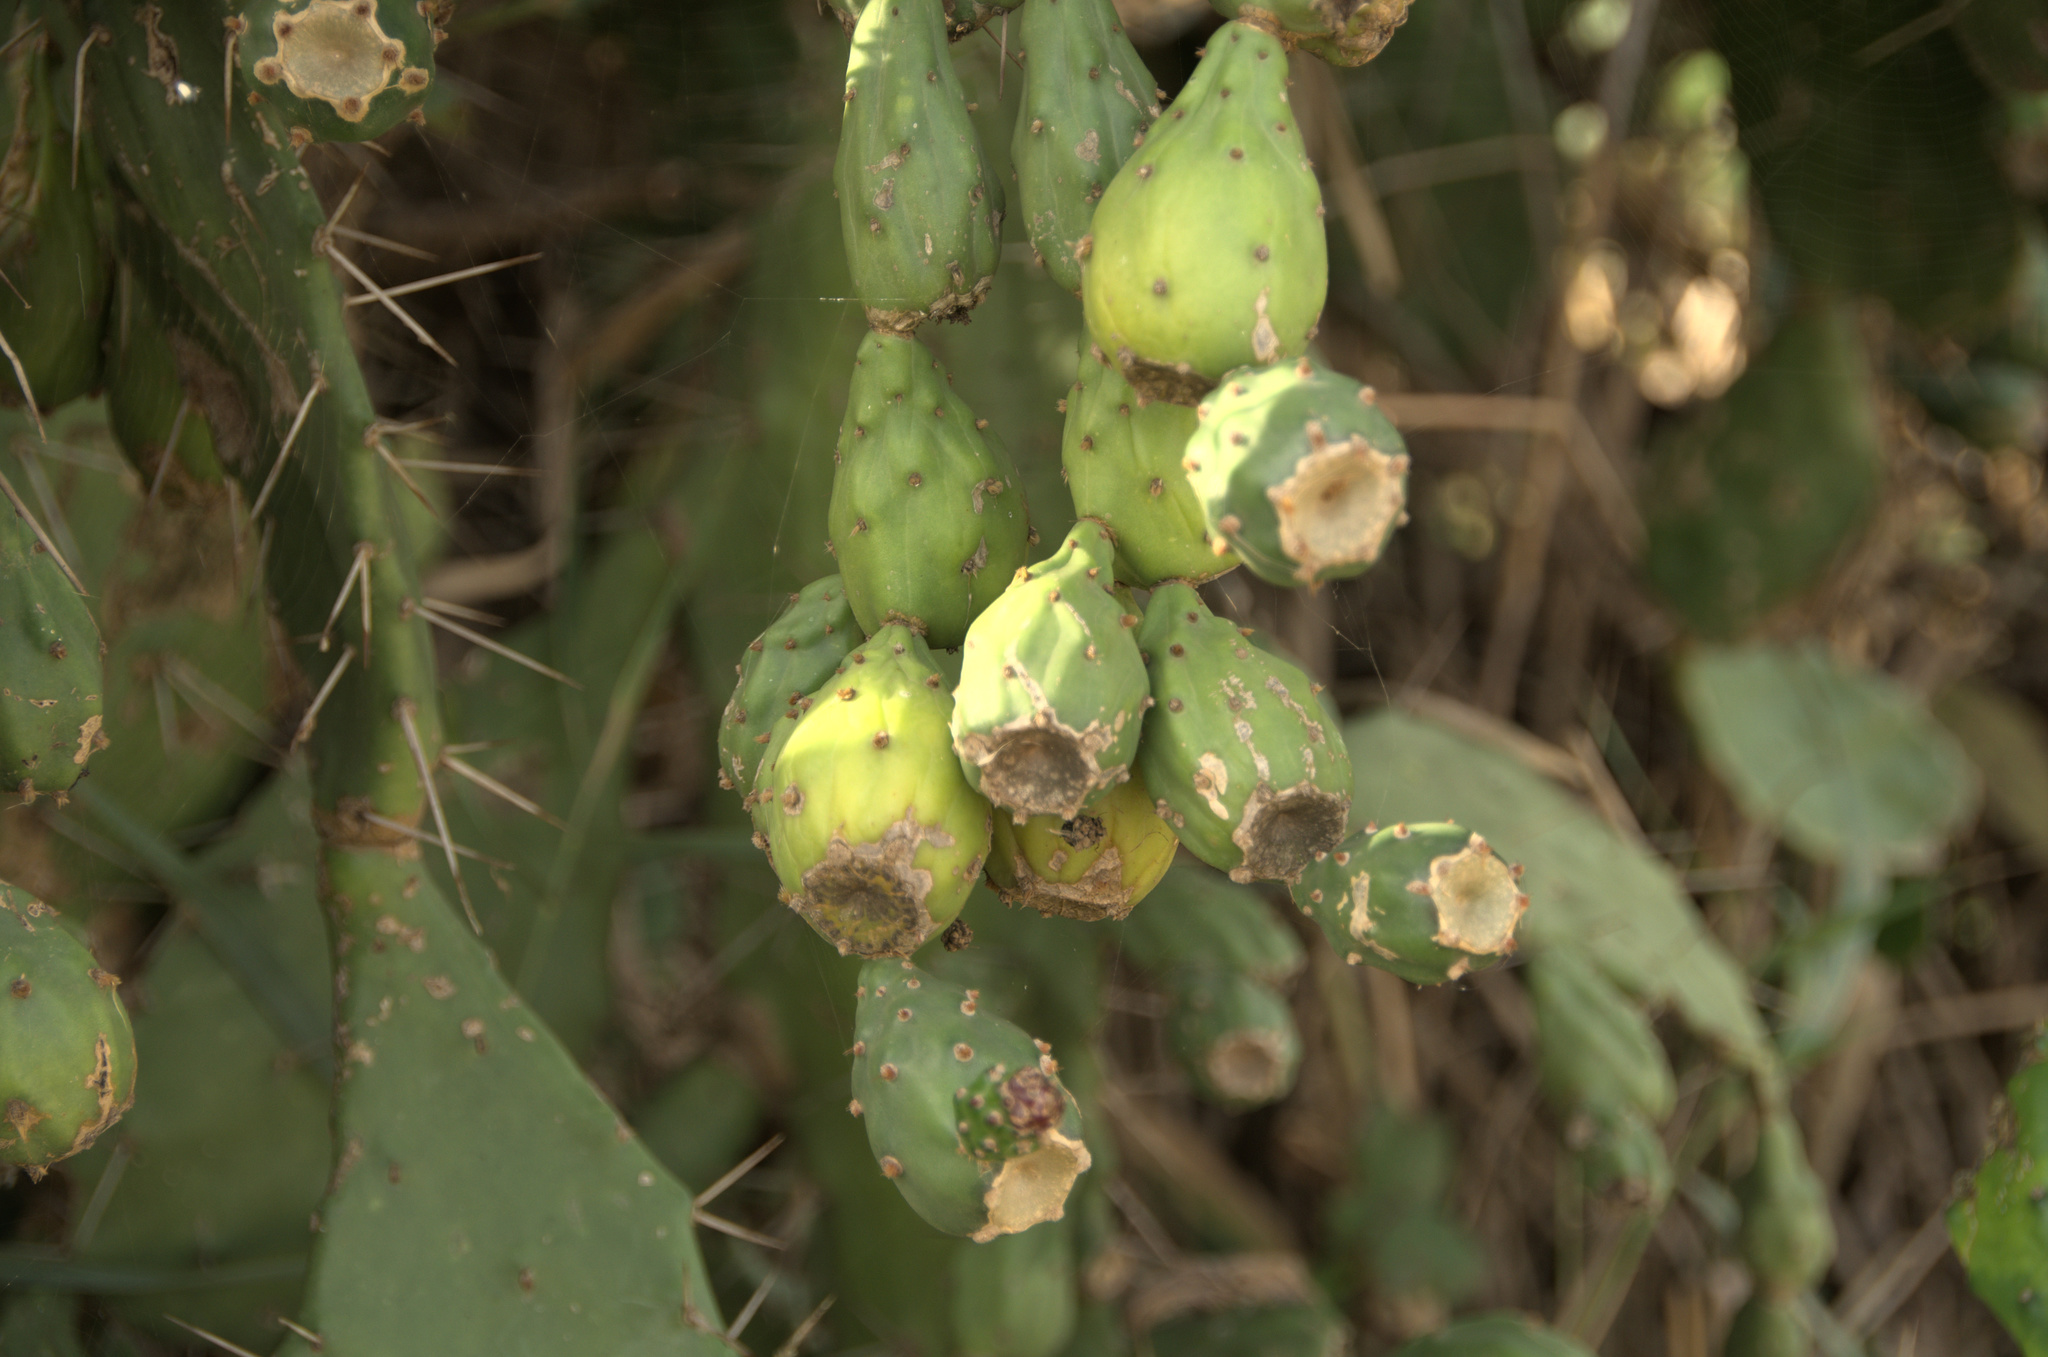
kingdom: Plantae
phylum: Tracheophyta
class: Magnoliopsida
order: Caryophyllales
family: Cactaceae
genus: Opuntia
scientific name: Opuntia monacantha
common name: Common pricklypear
